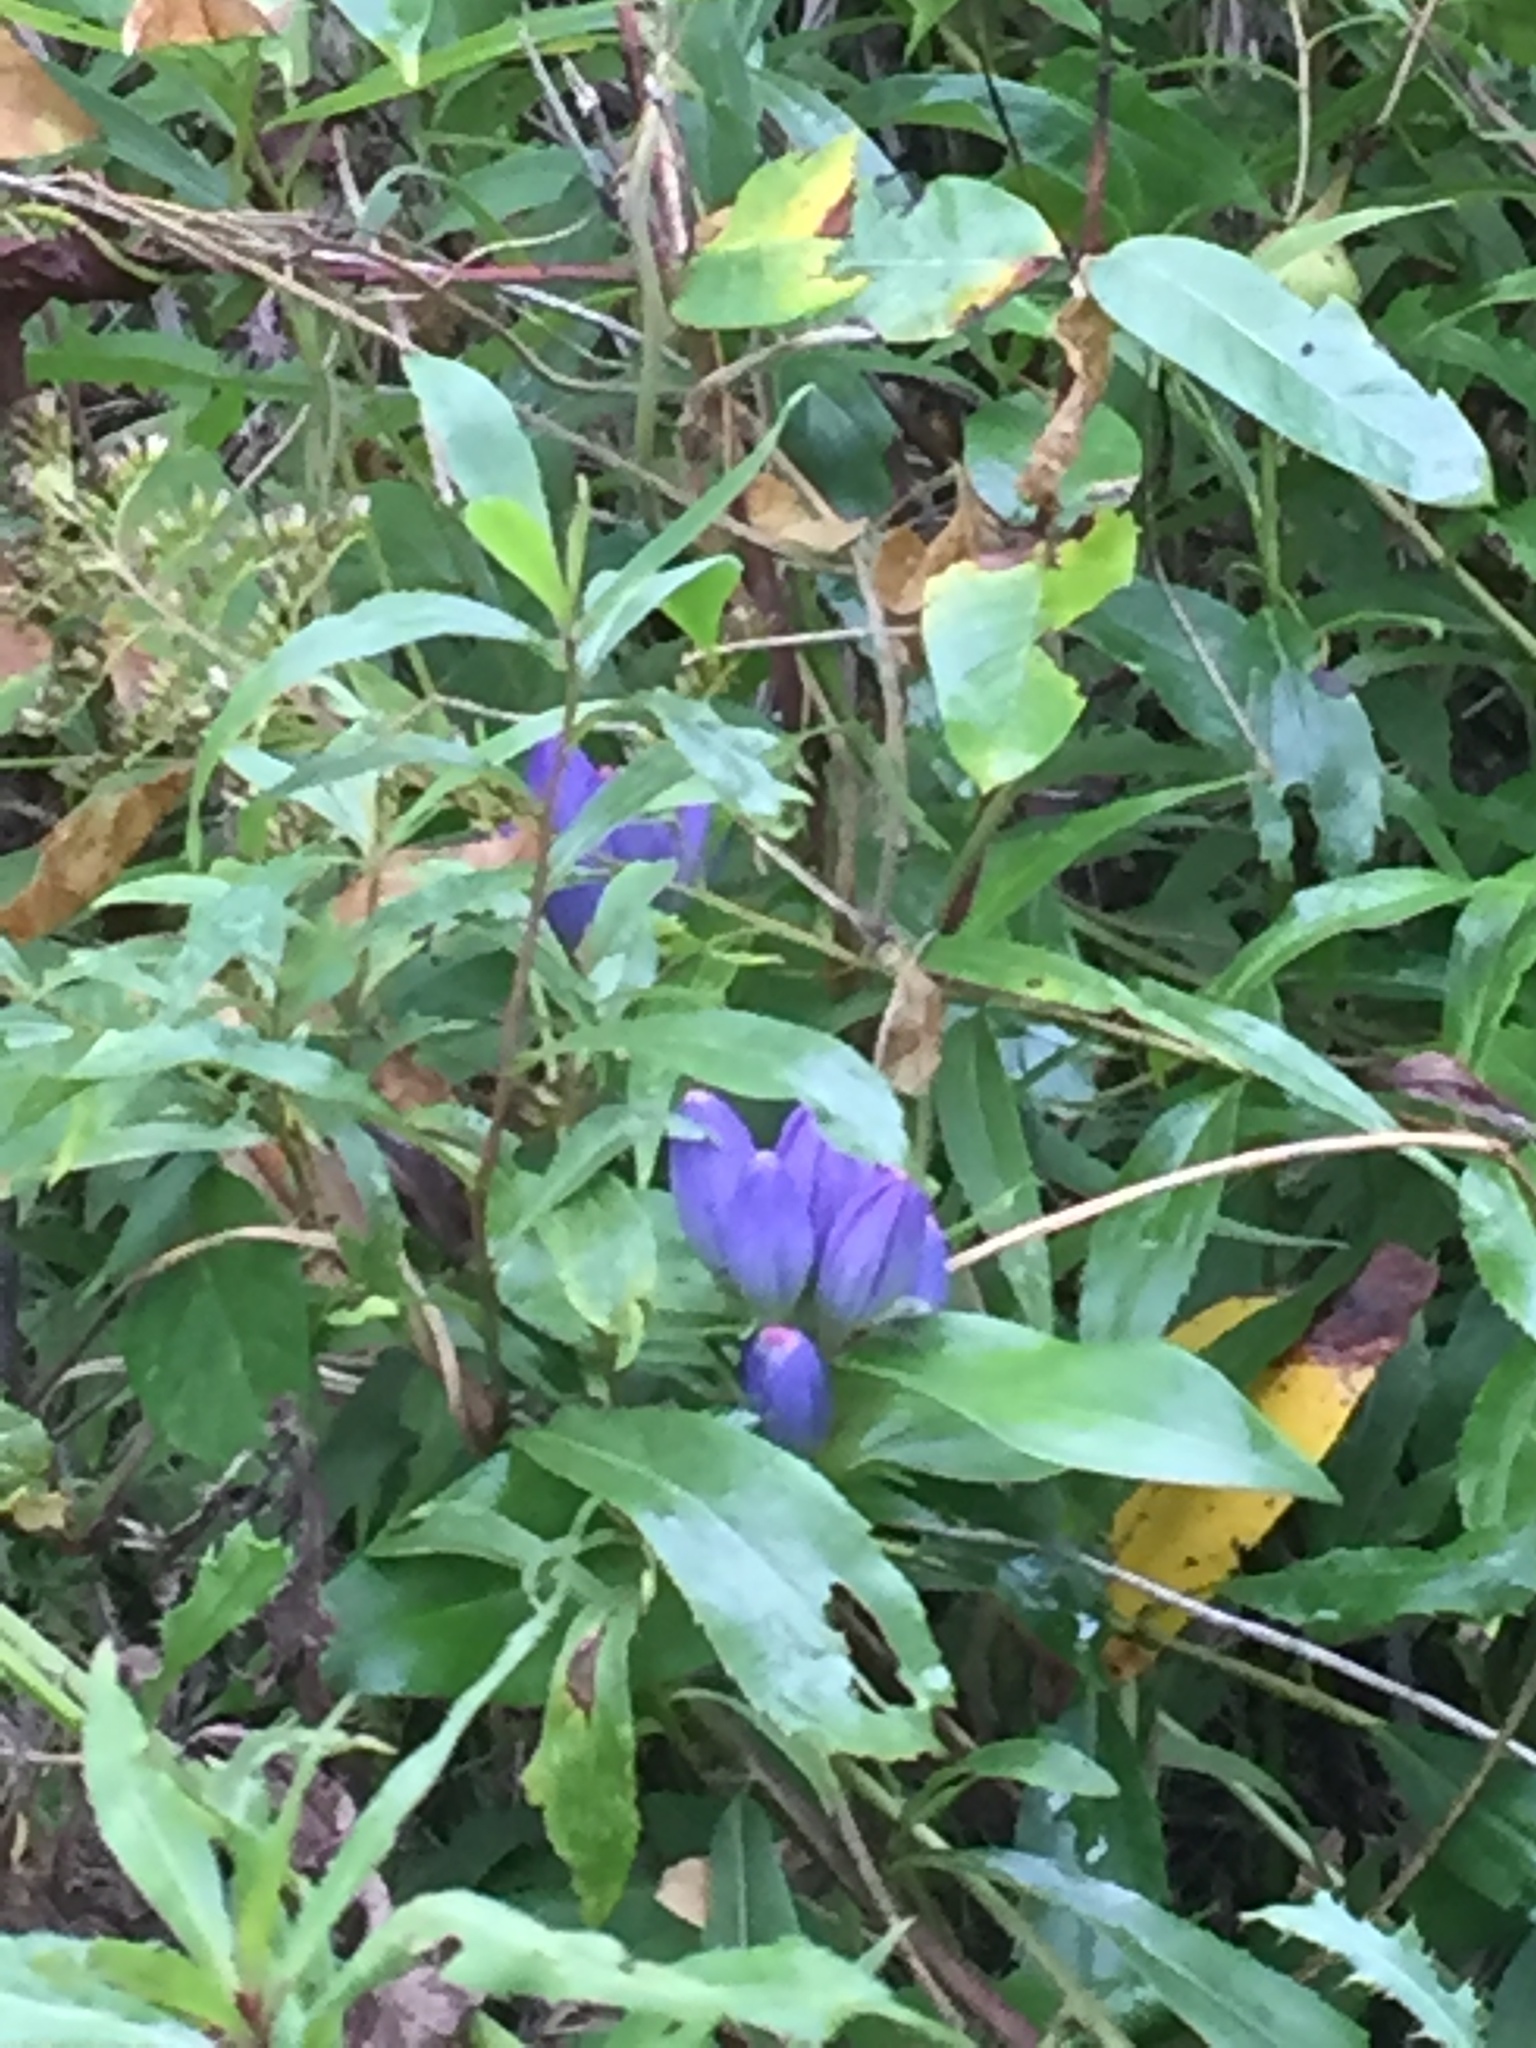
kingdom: Plantae
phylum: Tracheophyta
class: Magnoliopsida
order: Gentianales
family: Gentianaceae
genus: Gentiana
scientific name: Gentiana andrewsii
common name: Bottle gentian
